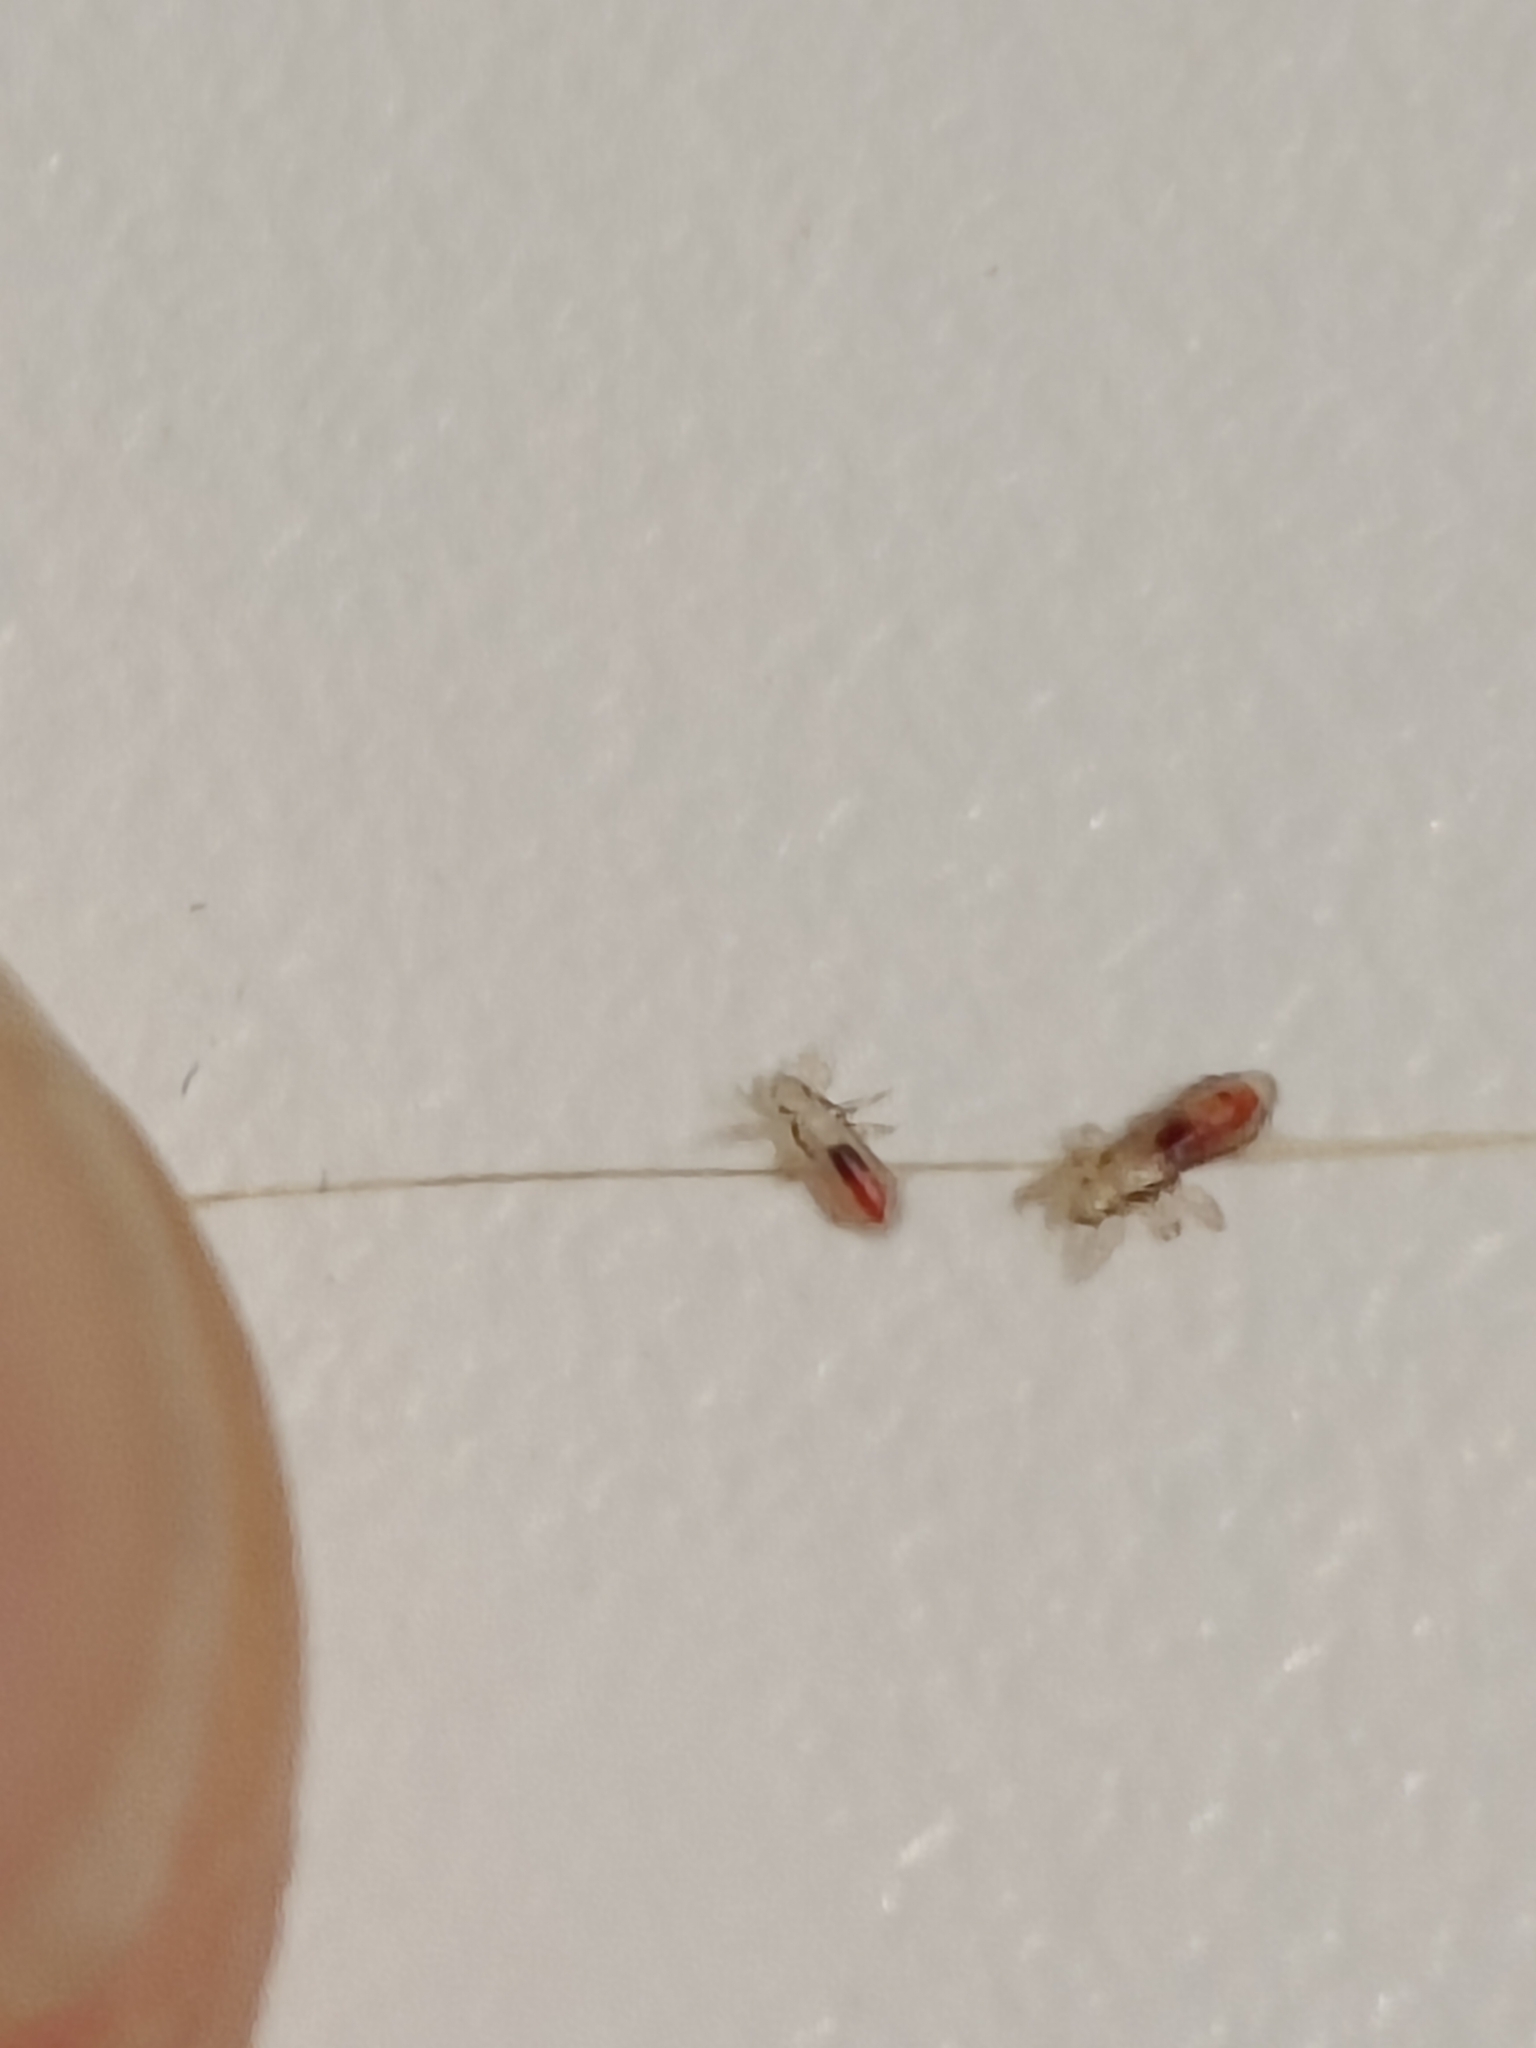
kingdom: Animalia
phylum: Arthropoda
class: Insecta
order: Psocodea
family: Pediculidae
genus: Pediculus
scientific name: Pediculus humanus
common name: Body louse
